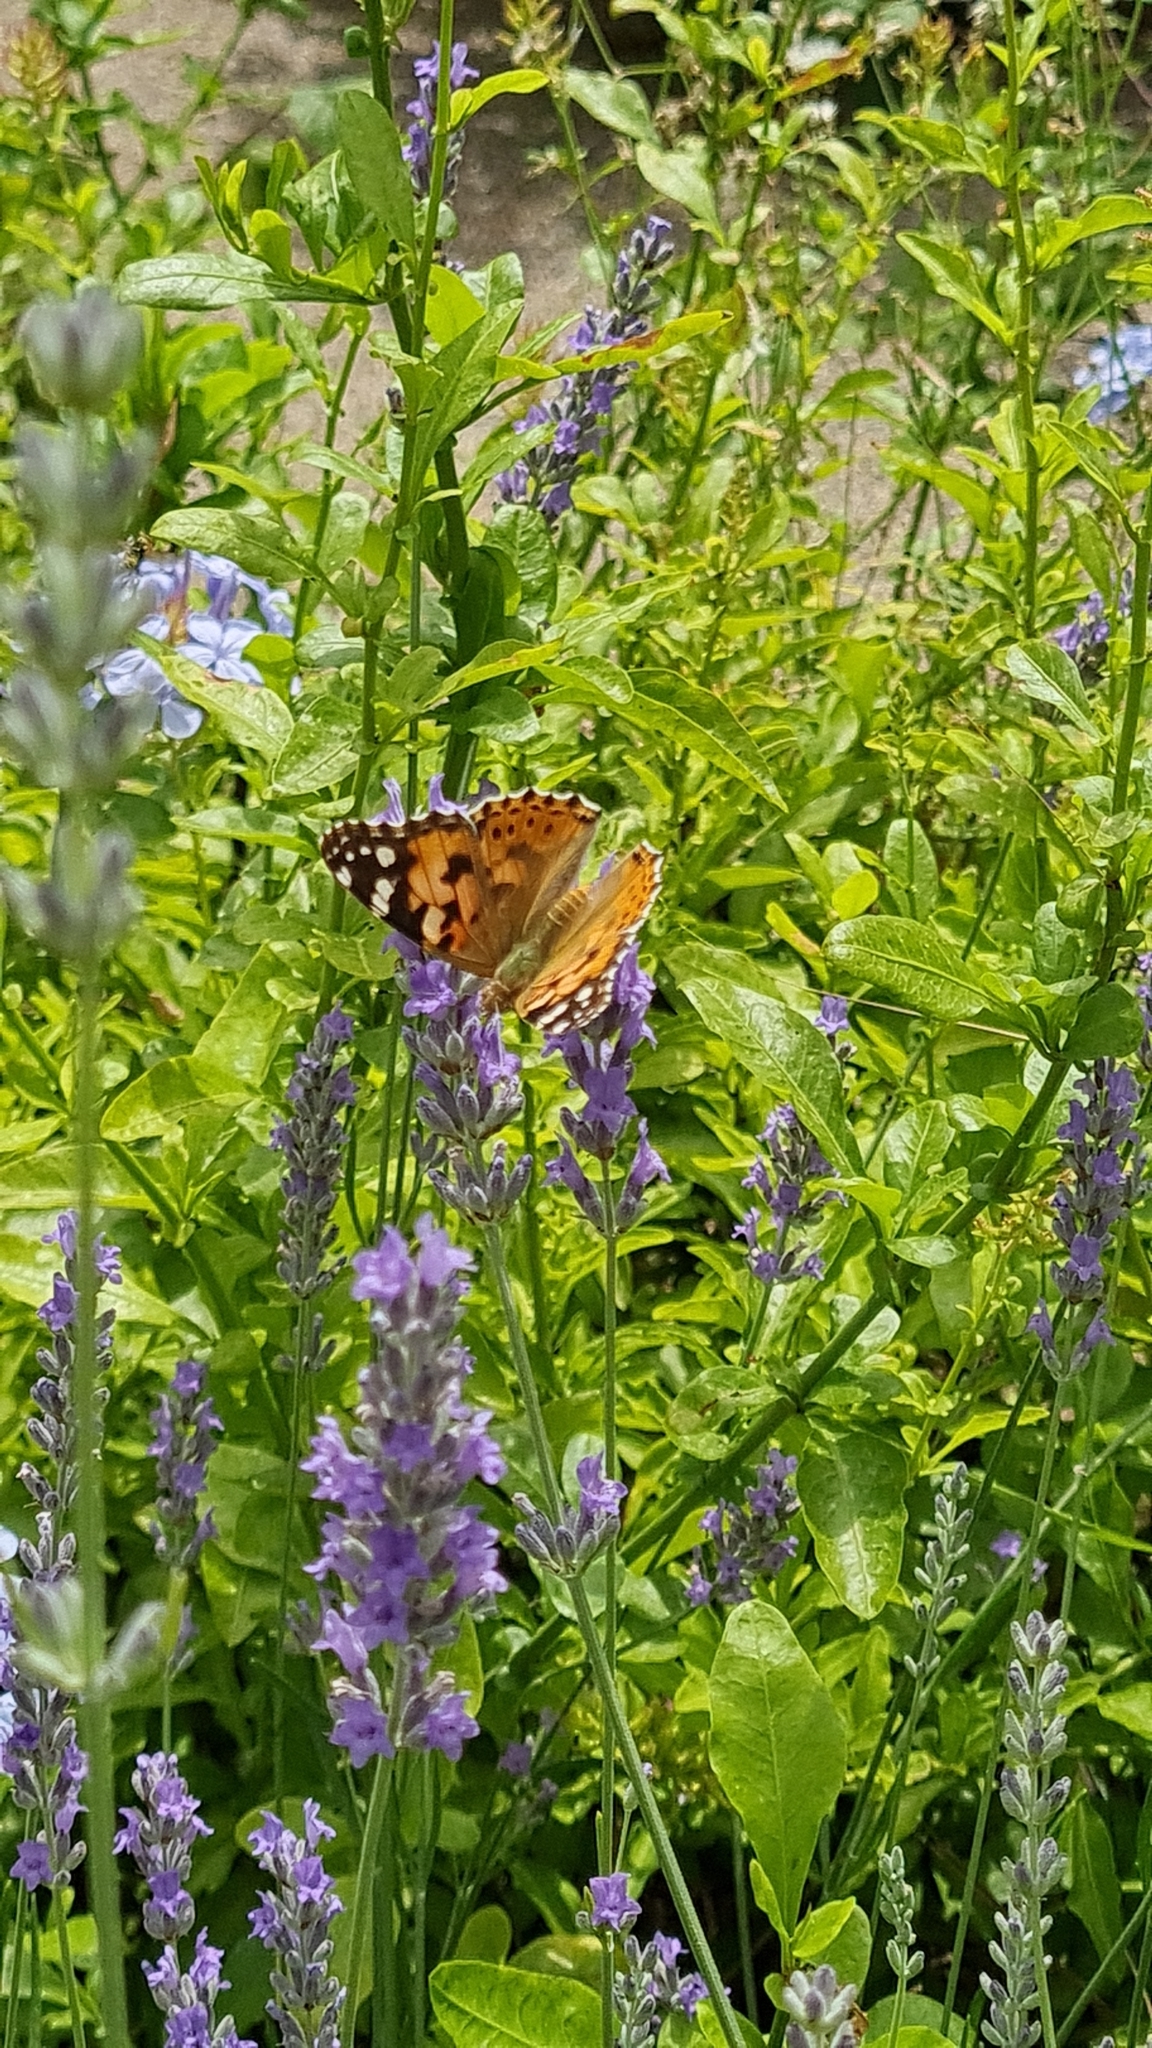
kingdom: Animalia
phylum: Arthropoda
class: Insecta
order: Lepidoptera
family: Nymphalidae
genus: Vanessa
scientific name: Vanessa cardui
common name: Painted lady
